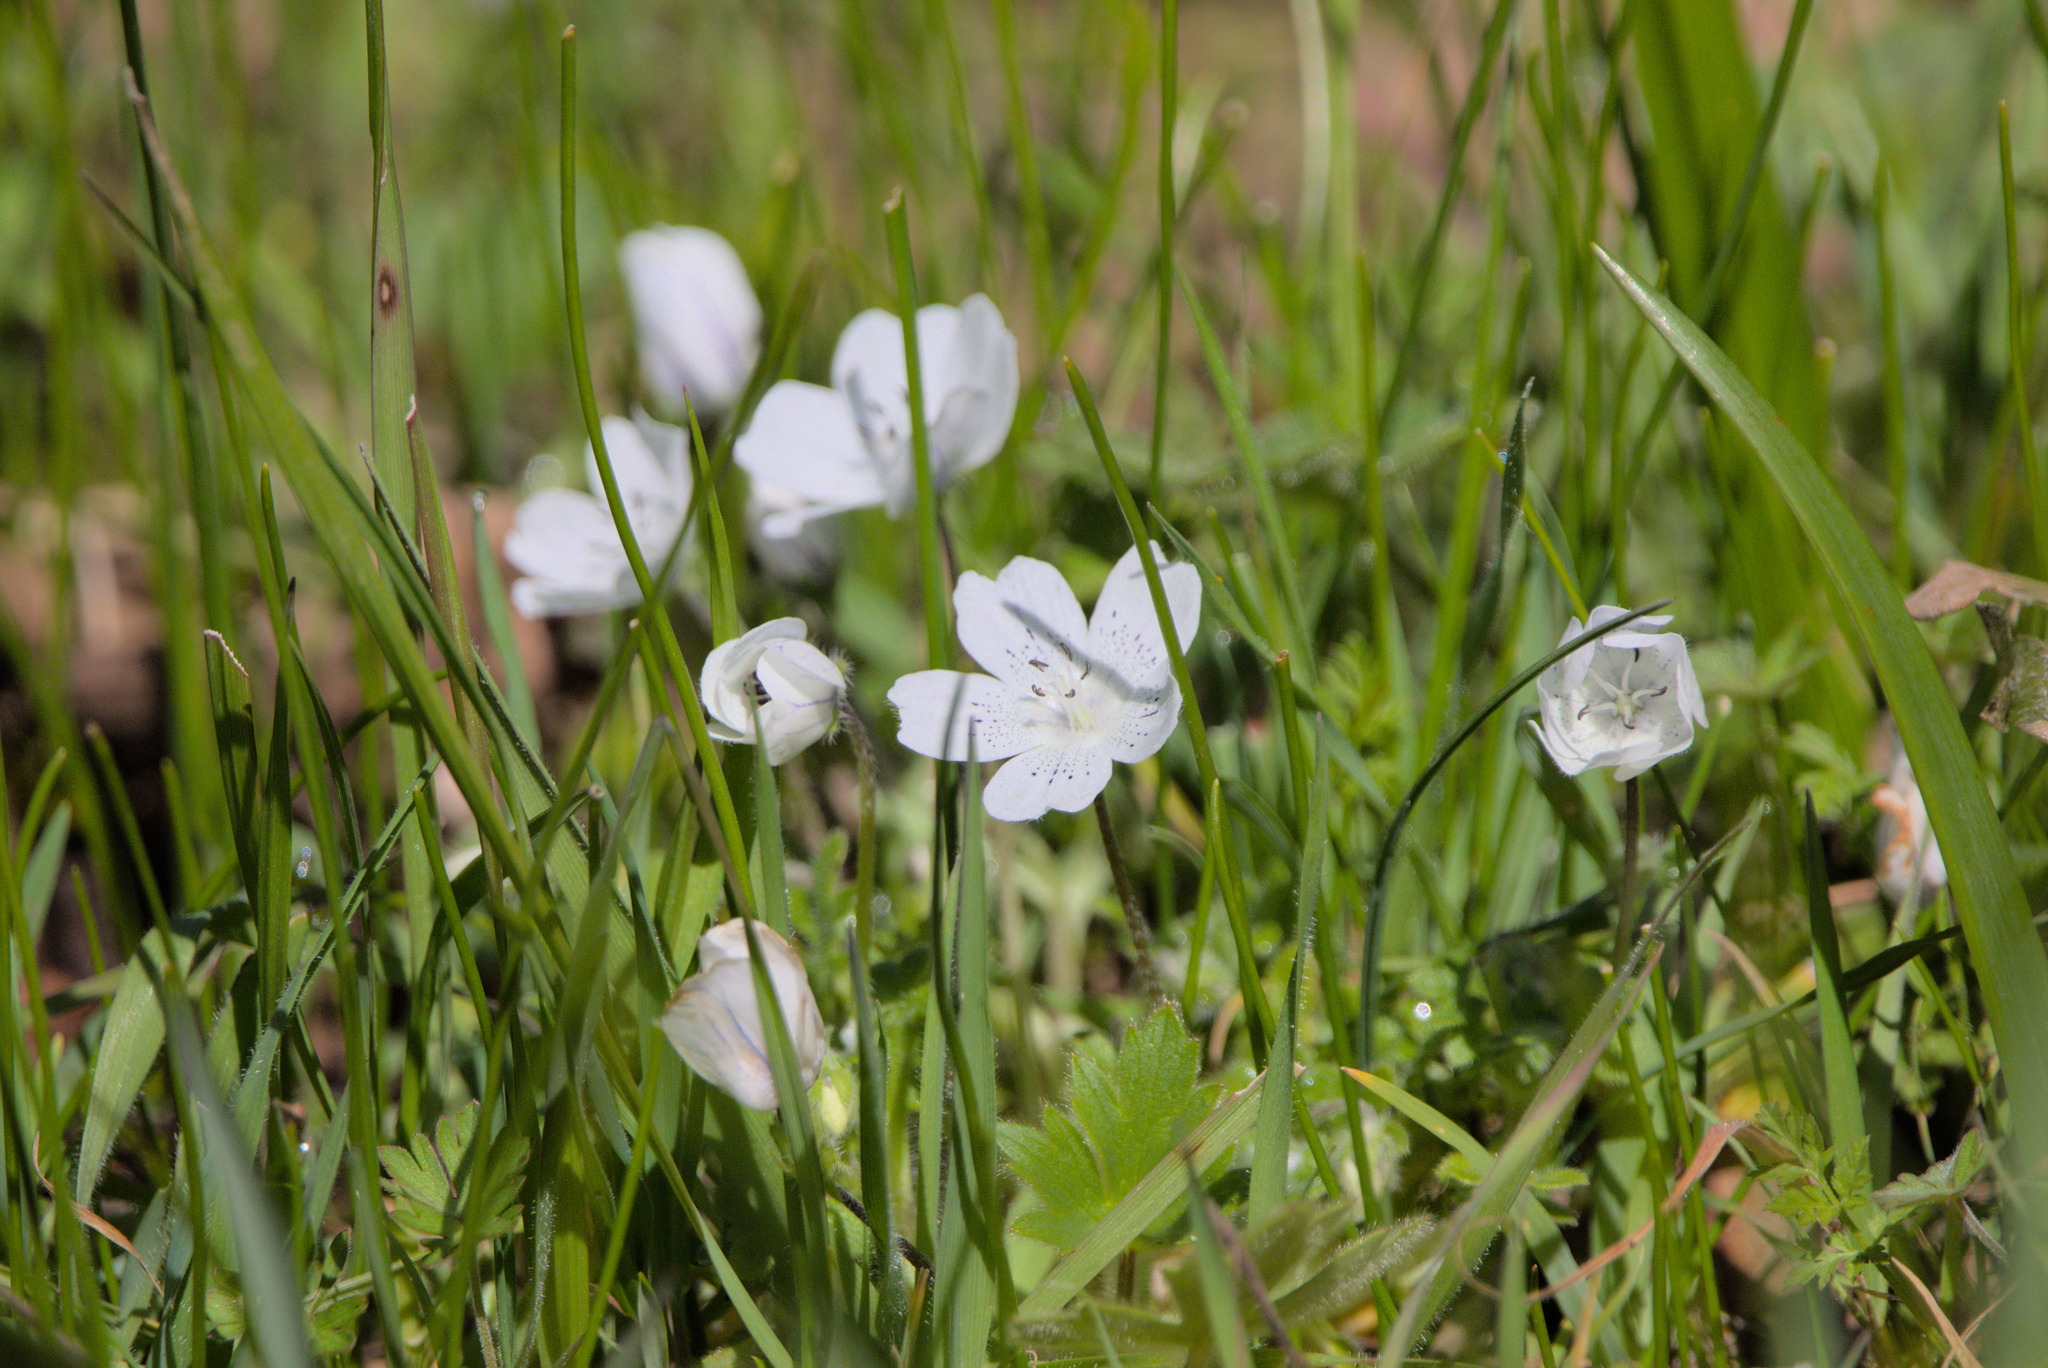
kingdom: Plantae
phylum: Tracheophyta
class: Magnoliopsida
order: Boraginales
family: Hydrophyllaceae
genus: Nemophila
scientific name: Nemophila menziesii
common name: Baby's-blue-eyes
